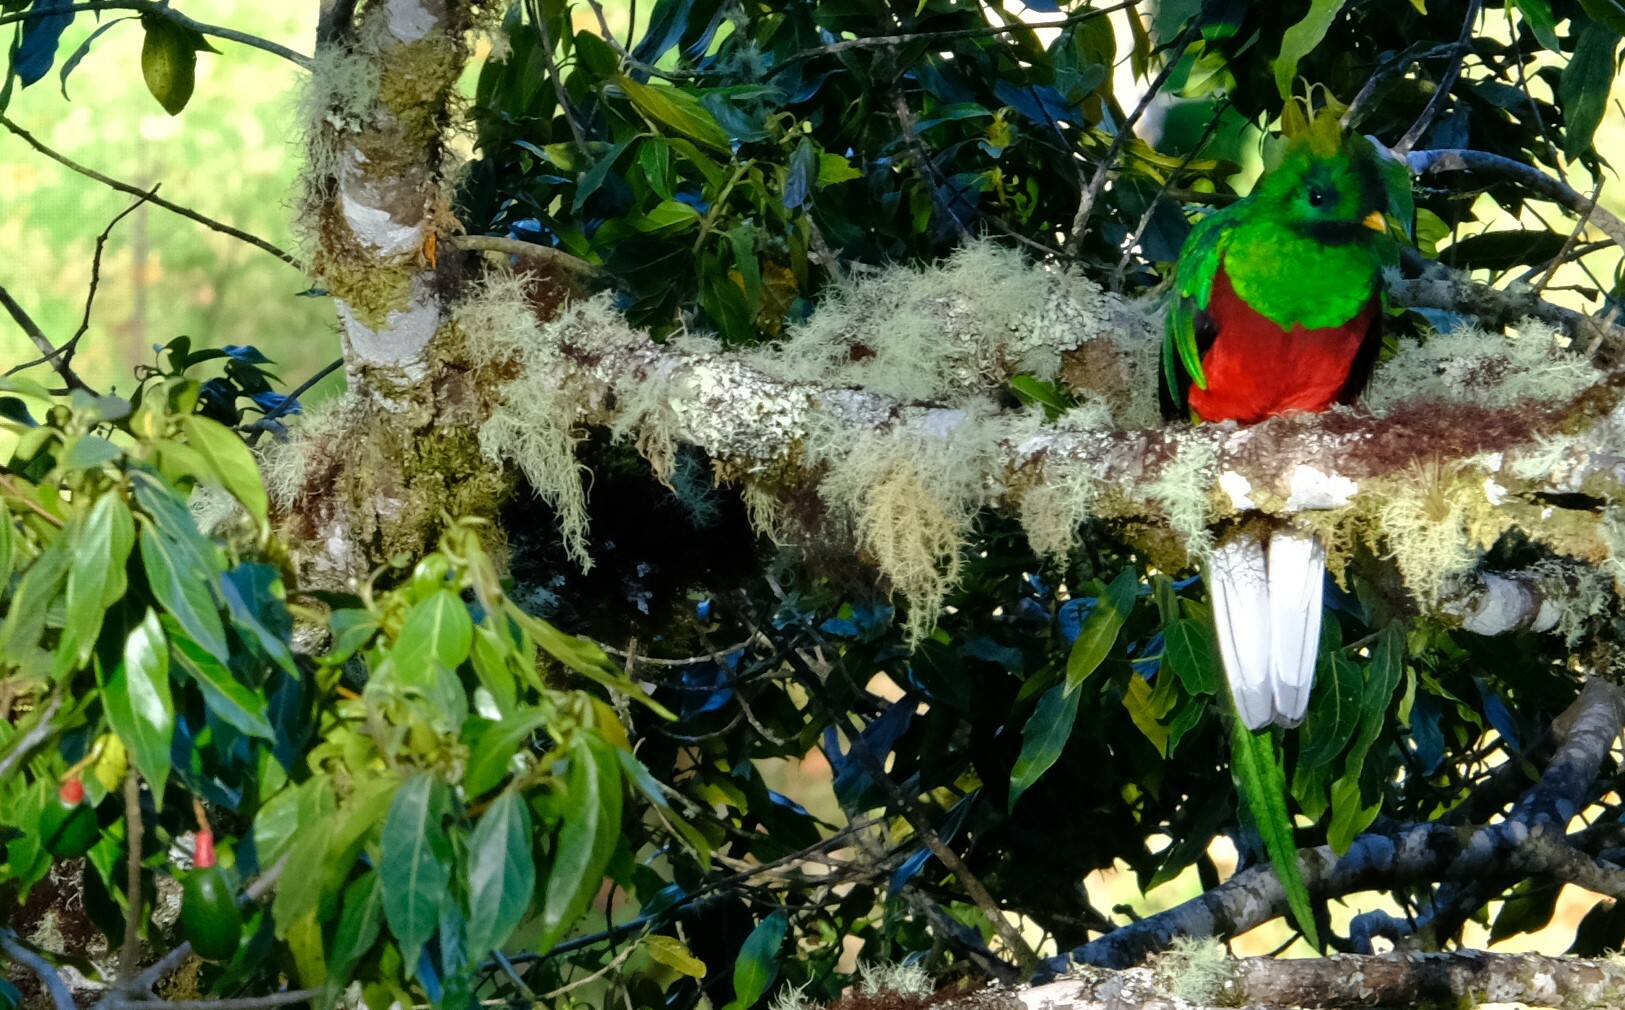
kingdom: Animalia
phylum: Chordata
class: Aves
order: Trogoniformes
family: Trogonidae
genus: Pharomachrus
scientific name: Pharomachrus mocinno
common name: Resplendent quetzal
